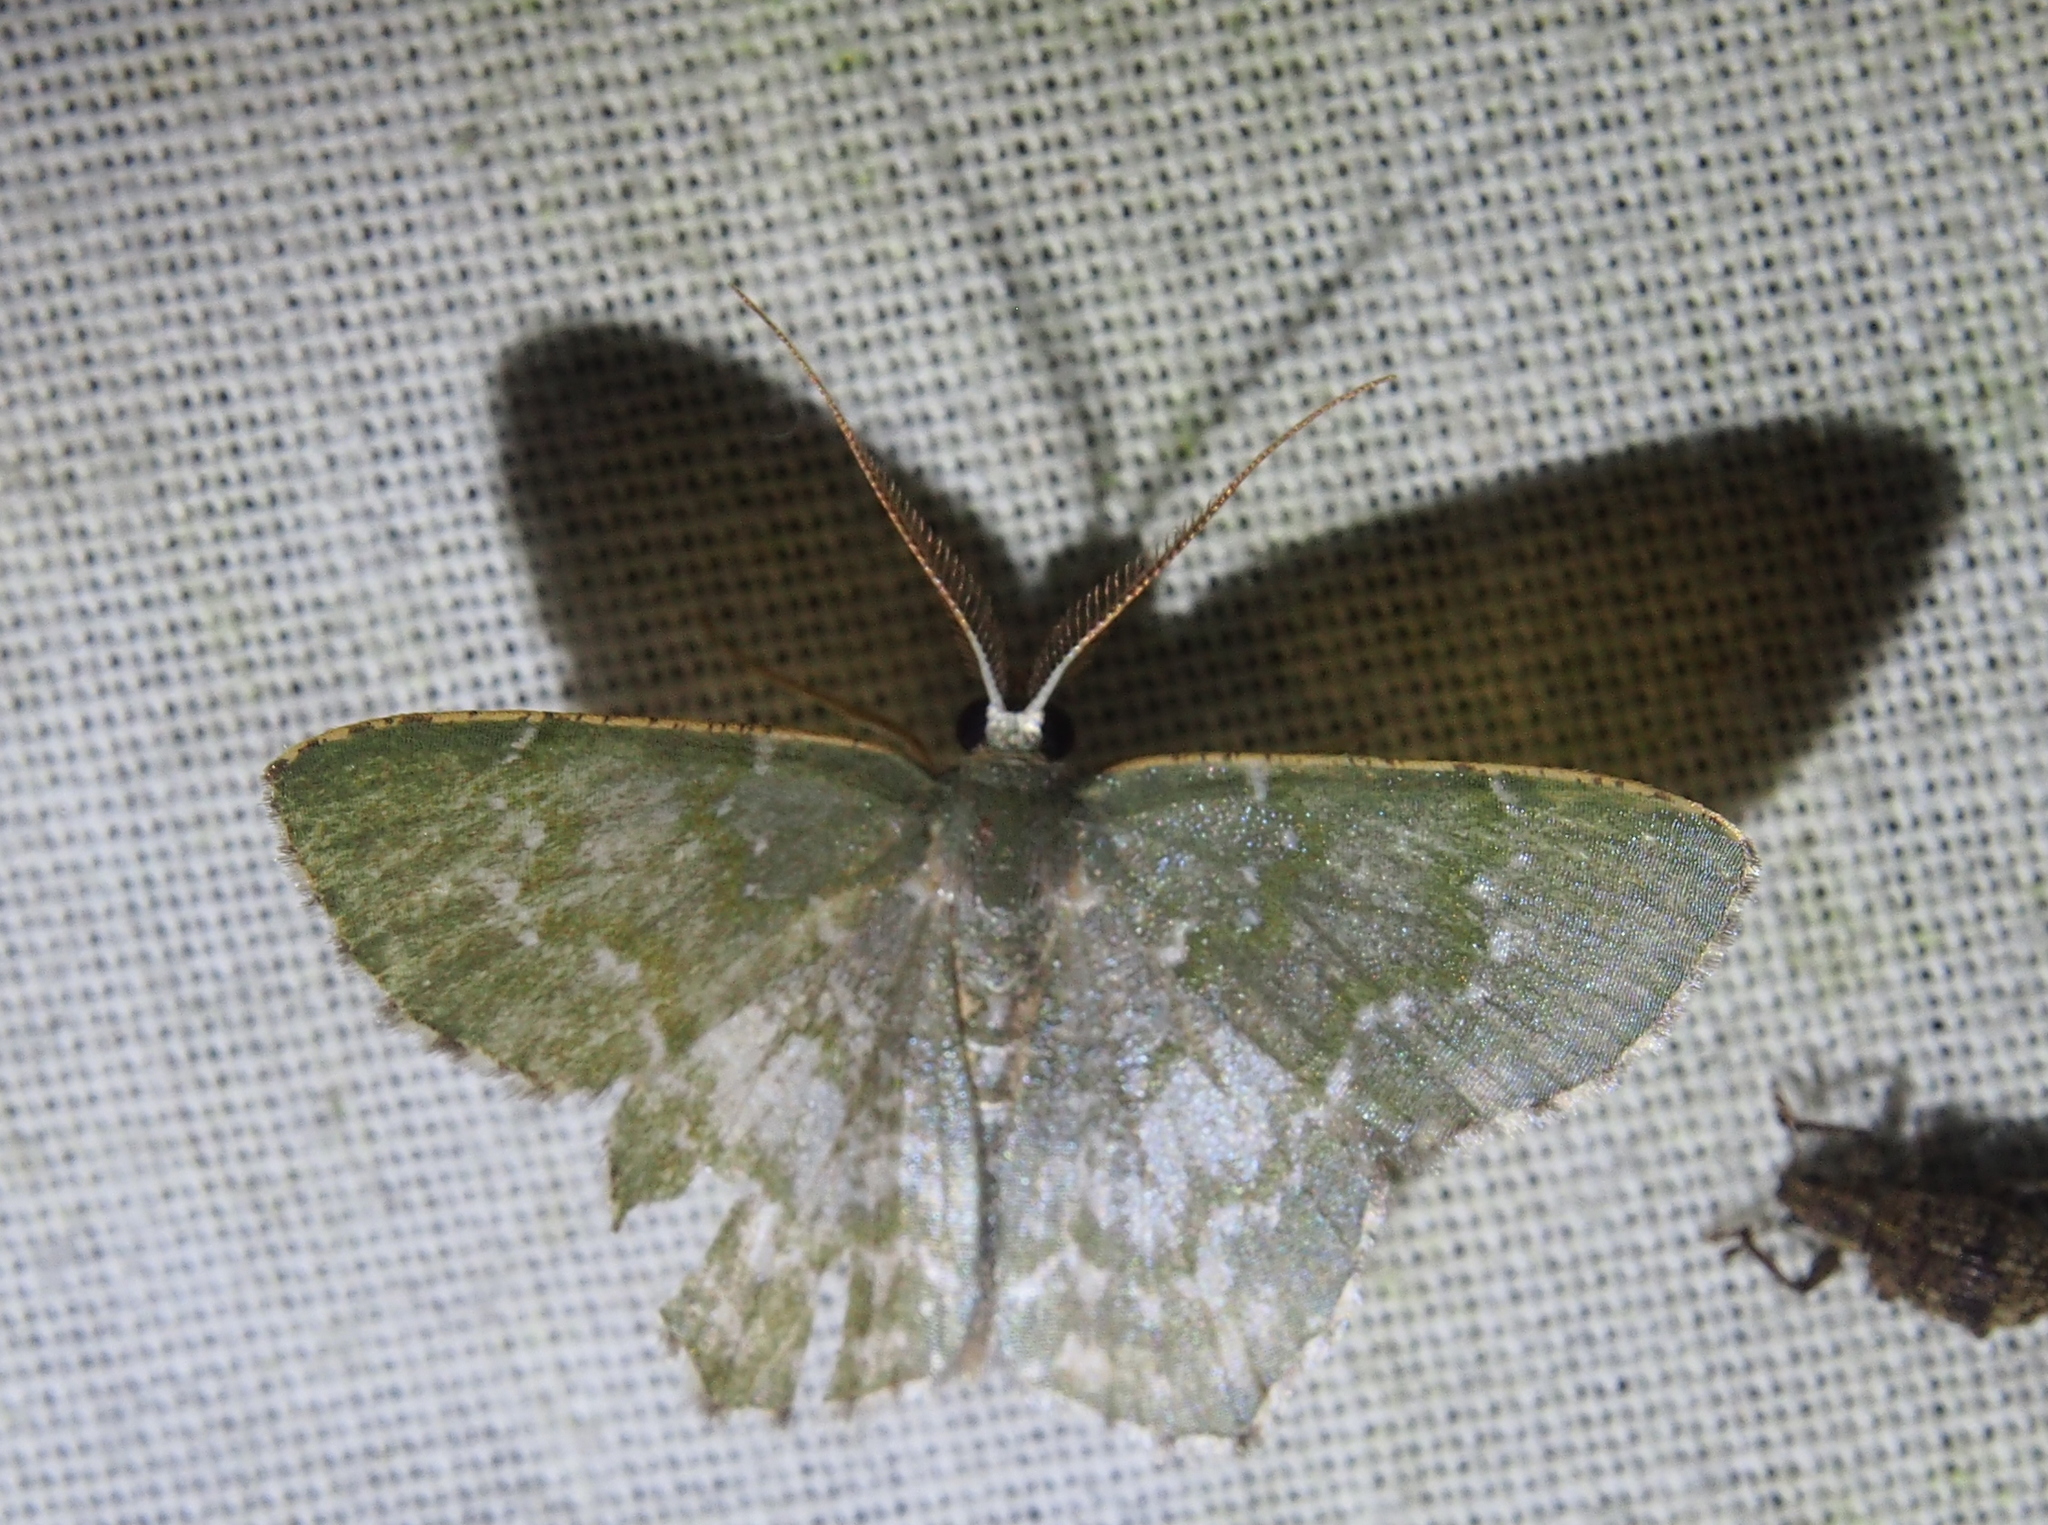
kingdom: Animalia
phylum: Arthropoda
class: Insecta
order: Lepidoptera
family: Geometridae
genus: Chloropteryx
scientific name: Chloropteryx dealbata
